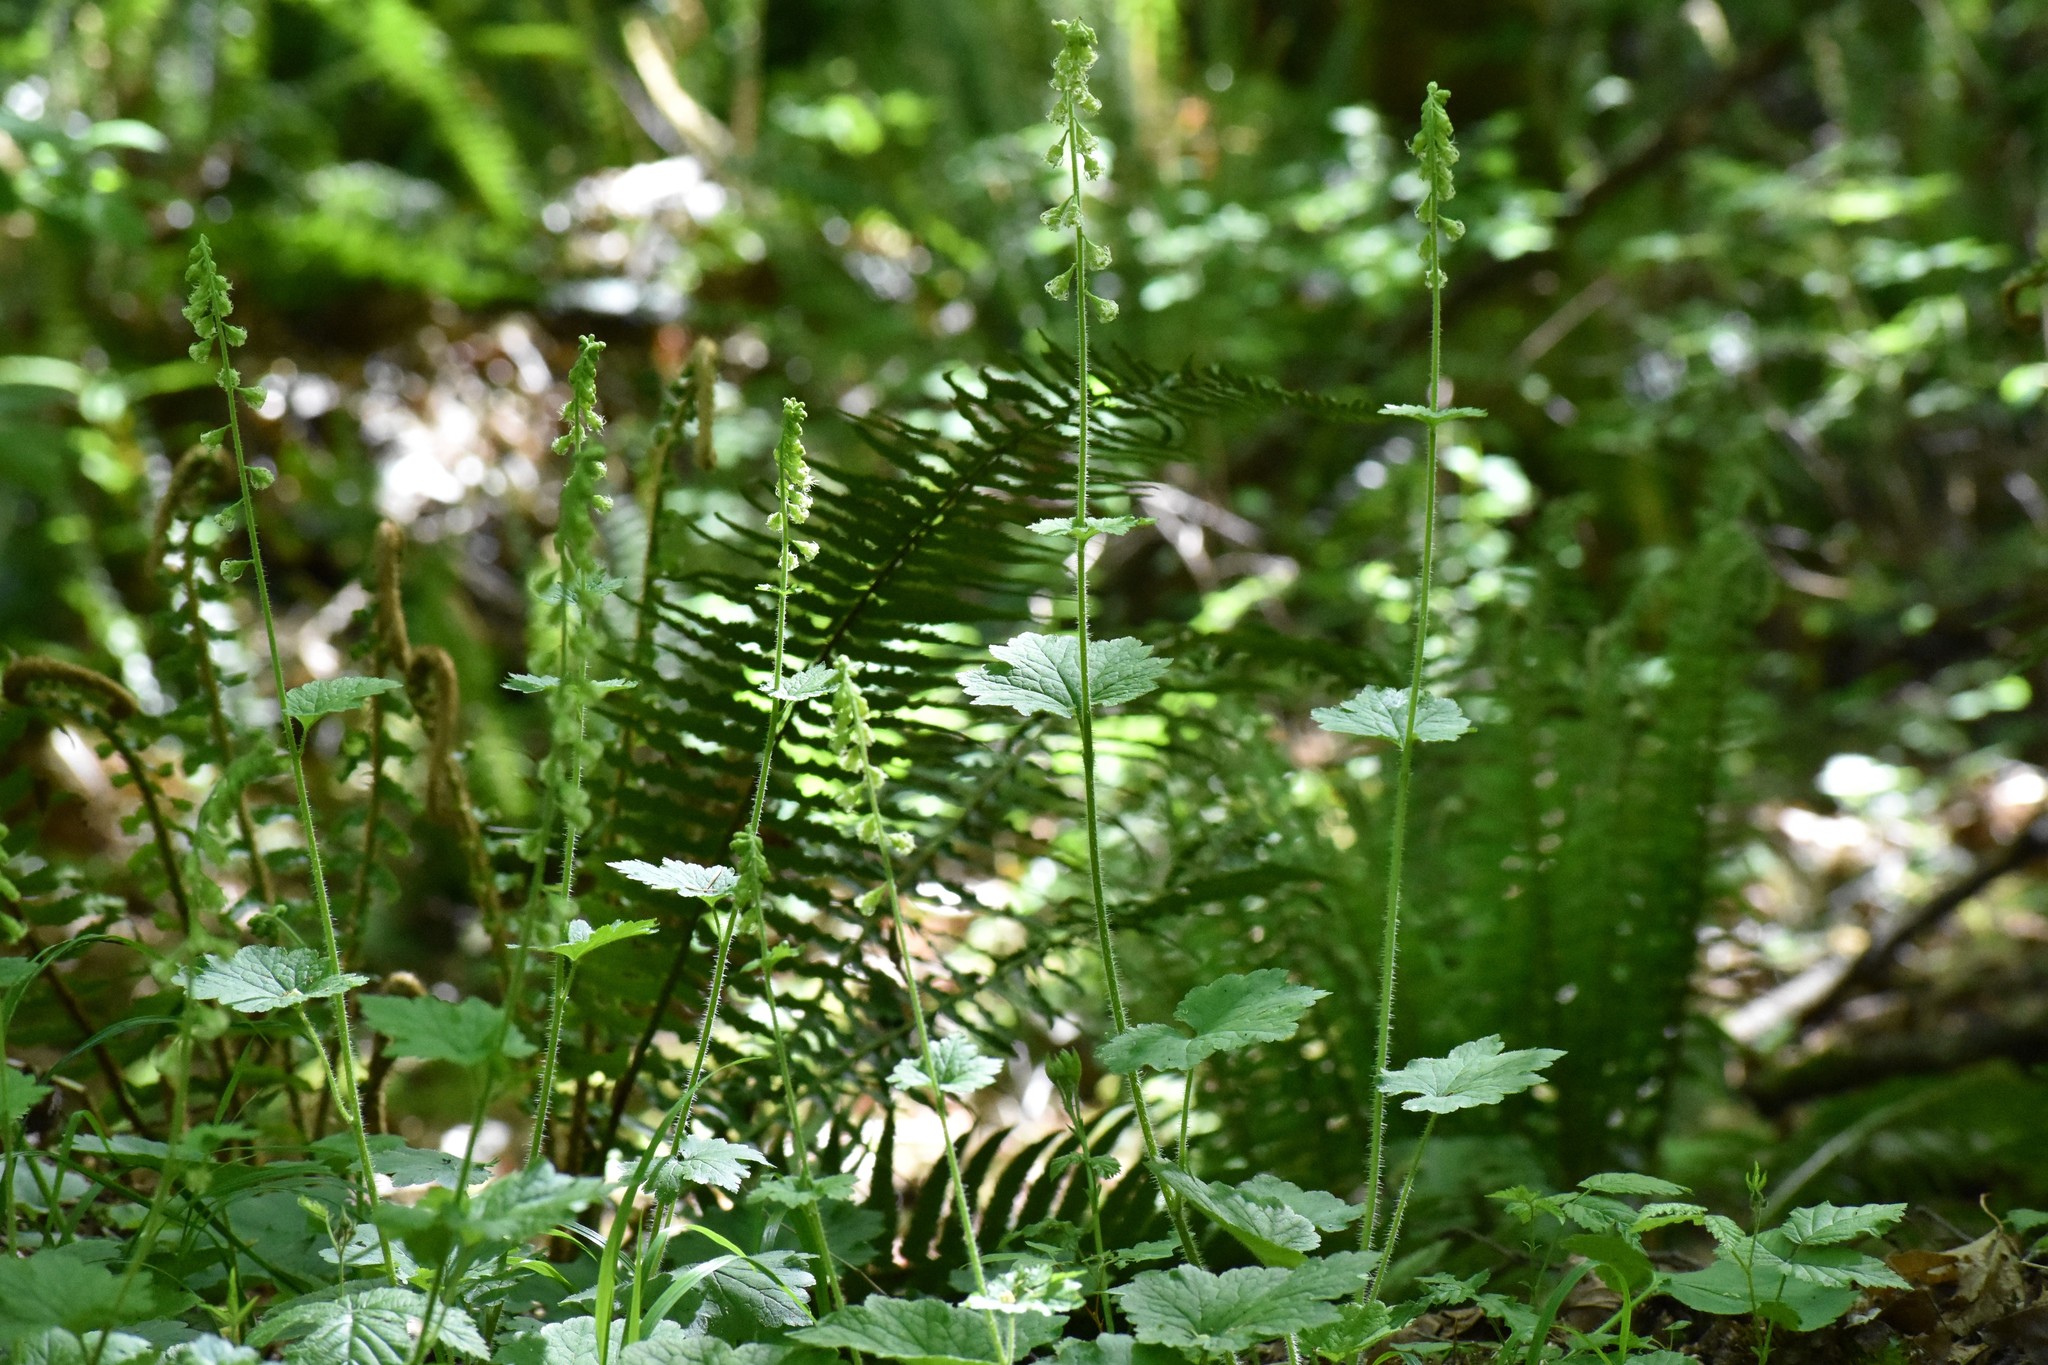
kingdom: Plantae
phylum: Tracheophyta
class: Magnoliopsida
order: Saxifragales
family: Saxifragaceae
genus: Tellima
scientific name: Tellima grandiflora
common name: Fringecups
